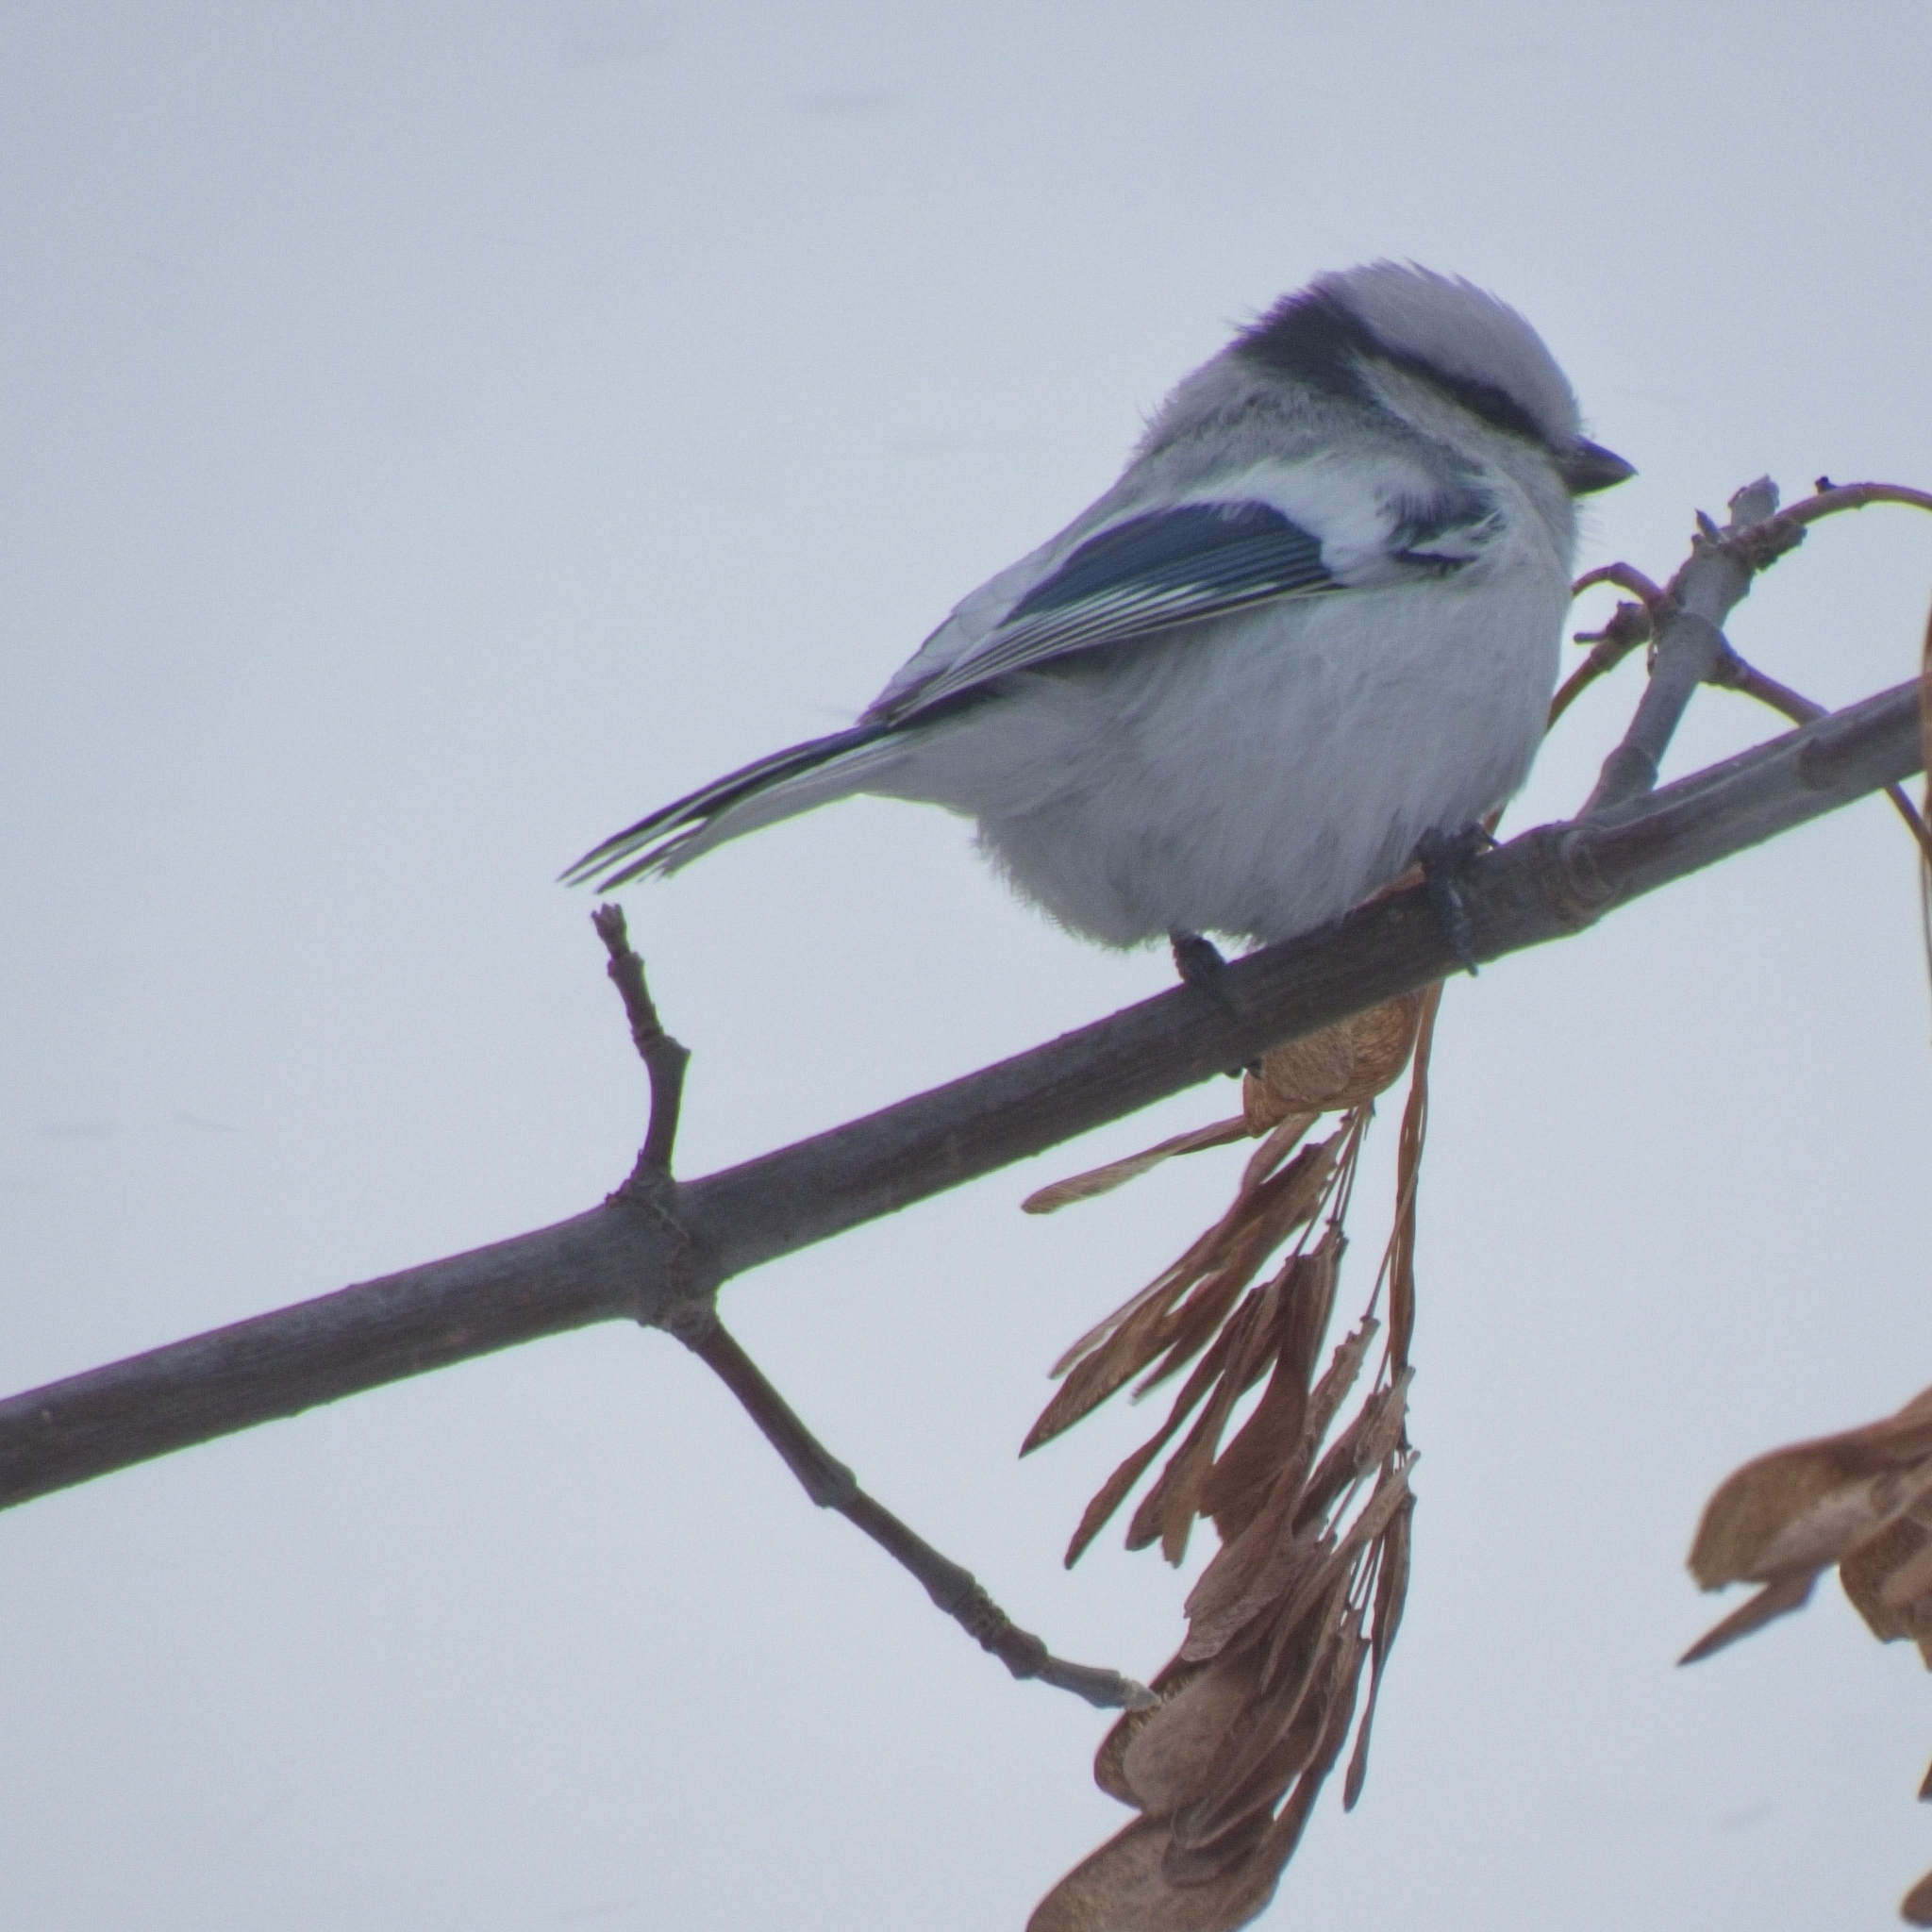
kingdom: Animalia
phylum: Chordata
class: Aves
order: Passeriformes
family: Paridae
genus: Cyanistes
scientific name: Cyanistes cyanus
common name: Azure tit
